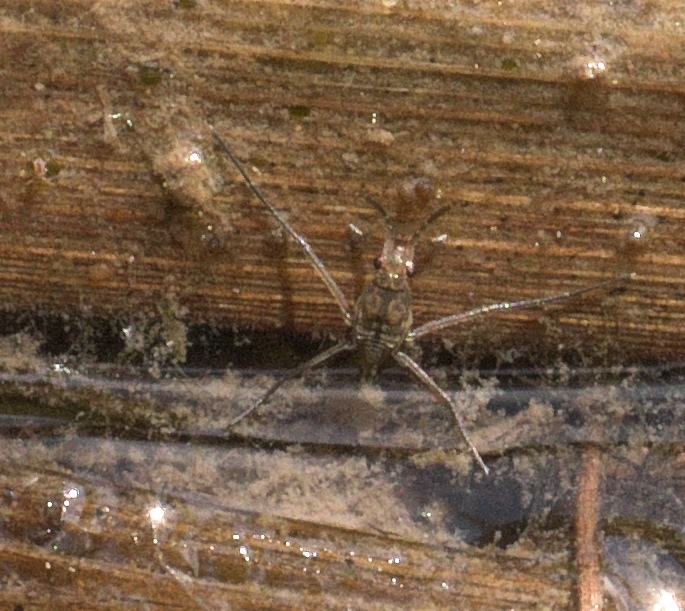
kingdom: Animalia
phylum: Arthropoda
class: Insecta
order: Hemiptera
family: Gerridae
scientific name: Gerridae
